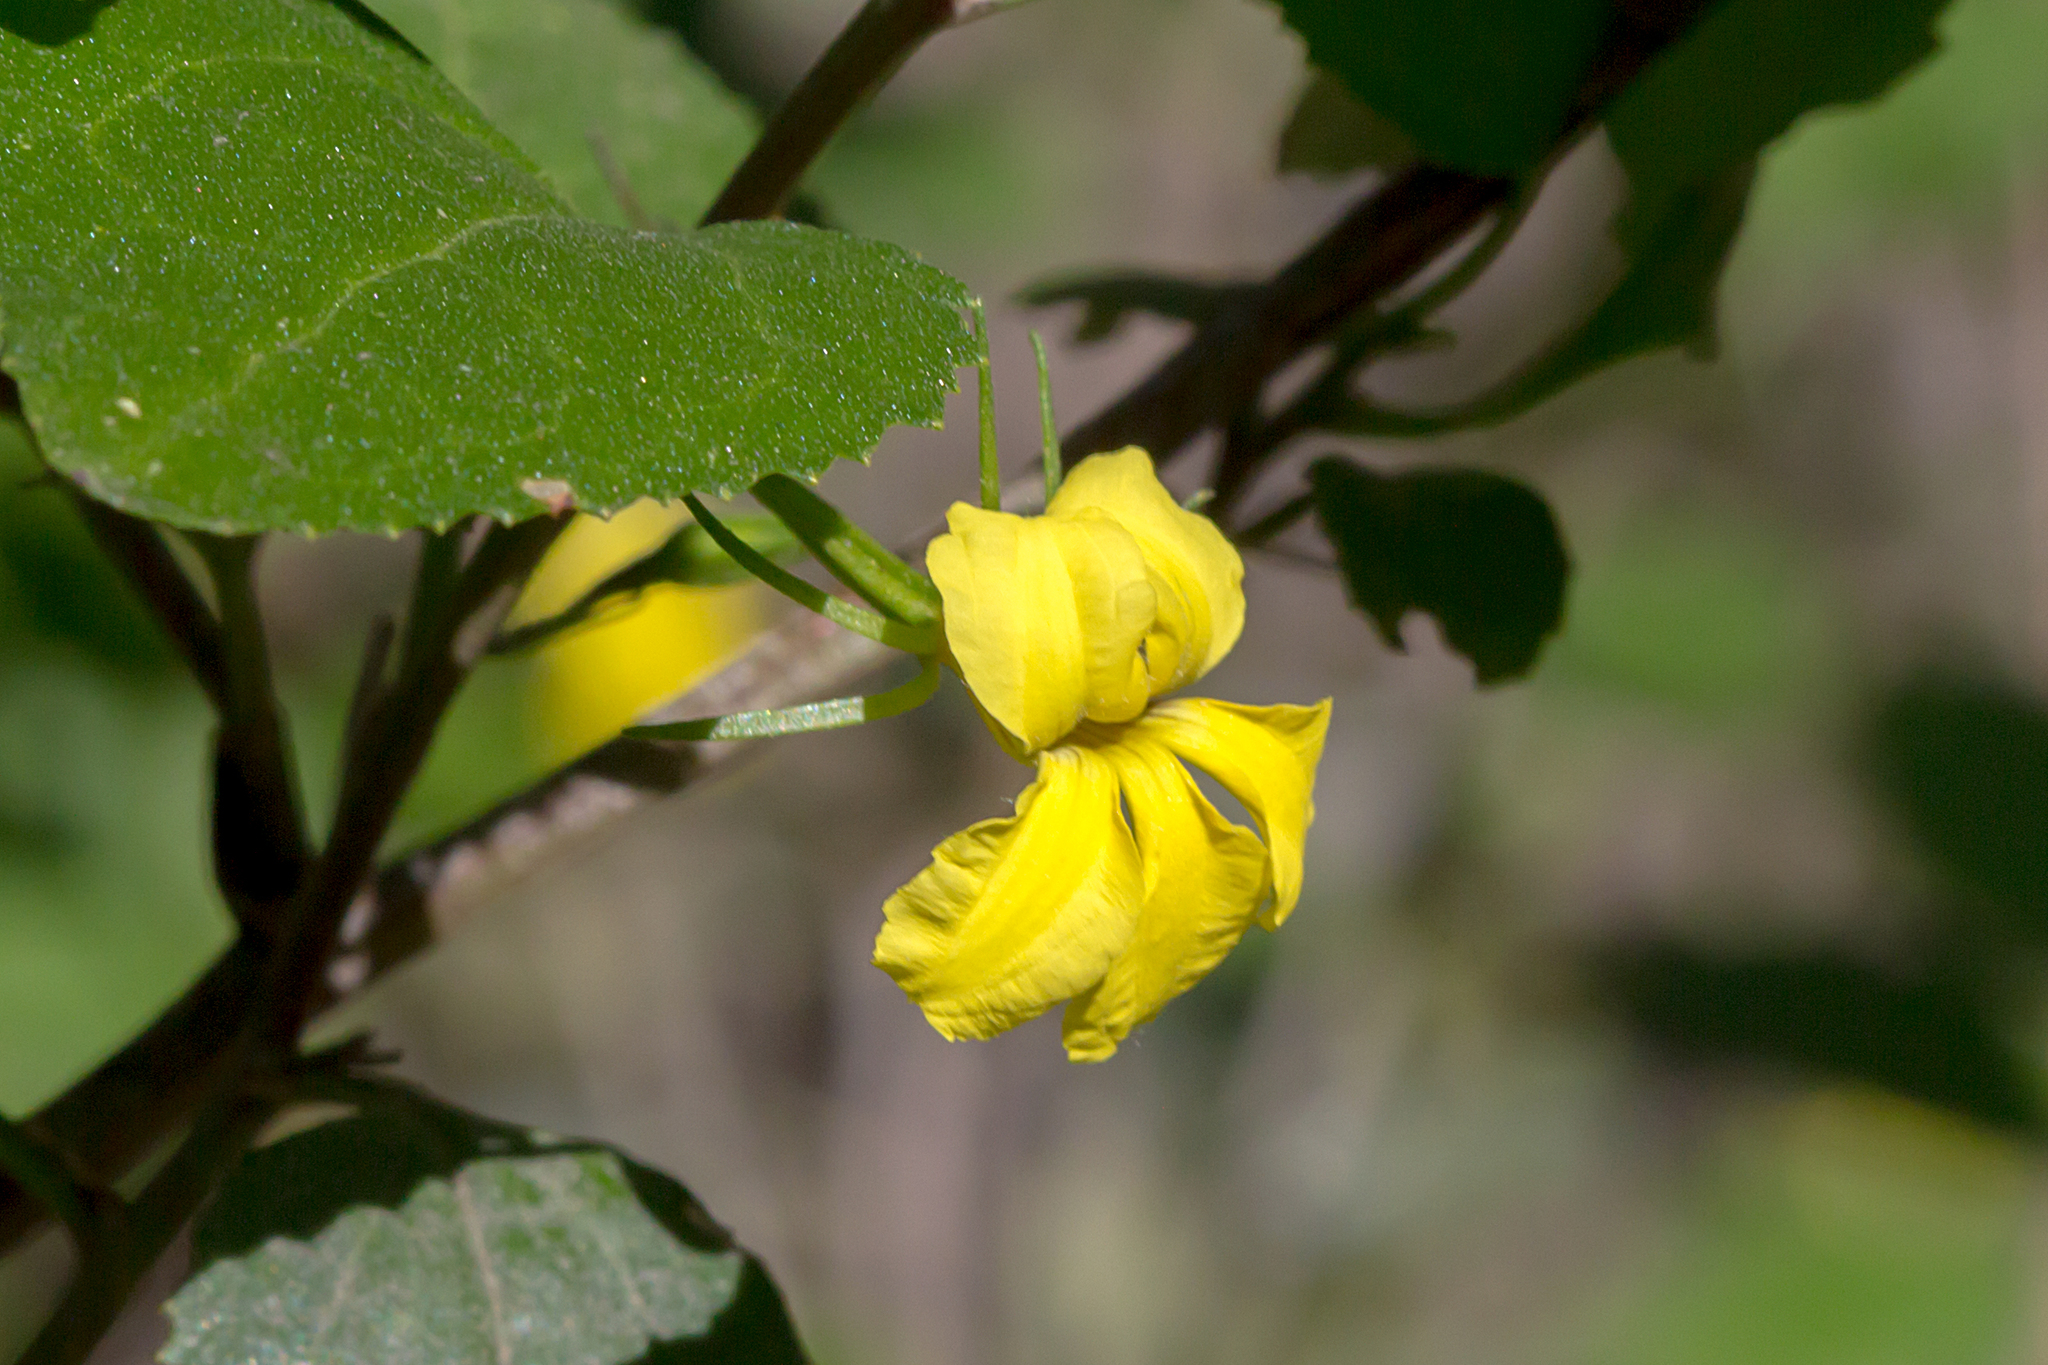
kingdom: Plantae
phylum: Tracheophyta
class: Magnoliopsida
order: Asterales
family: Goodeniaceae
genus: Goodenia
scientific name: Goodenia ovata
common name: Hop goodenia
